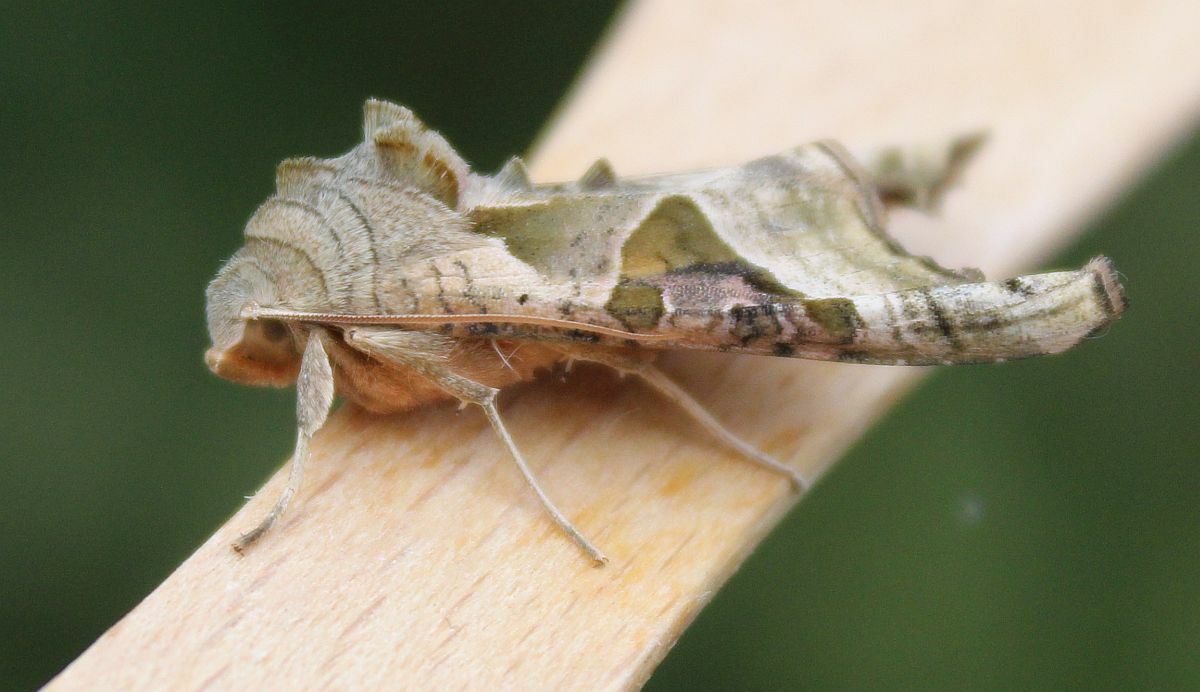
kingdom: Animalia
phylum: Arthropoda
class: Insecta
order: Lepidoptera
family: Noctuidae
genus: Phlogophora
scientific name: Phlogophora meticulosa
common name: Angle shades
